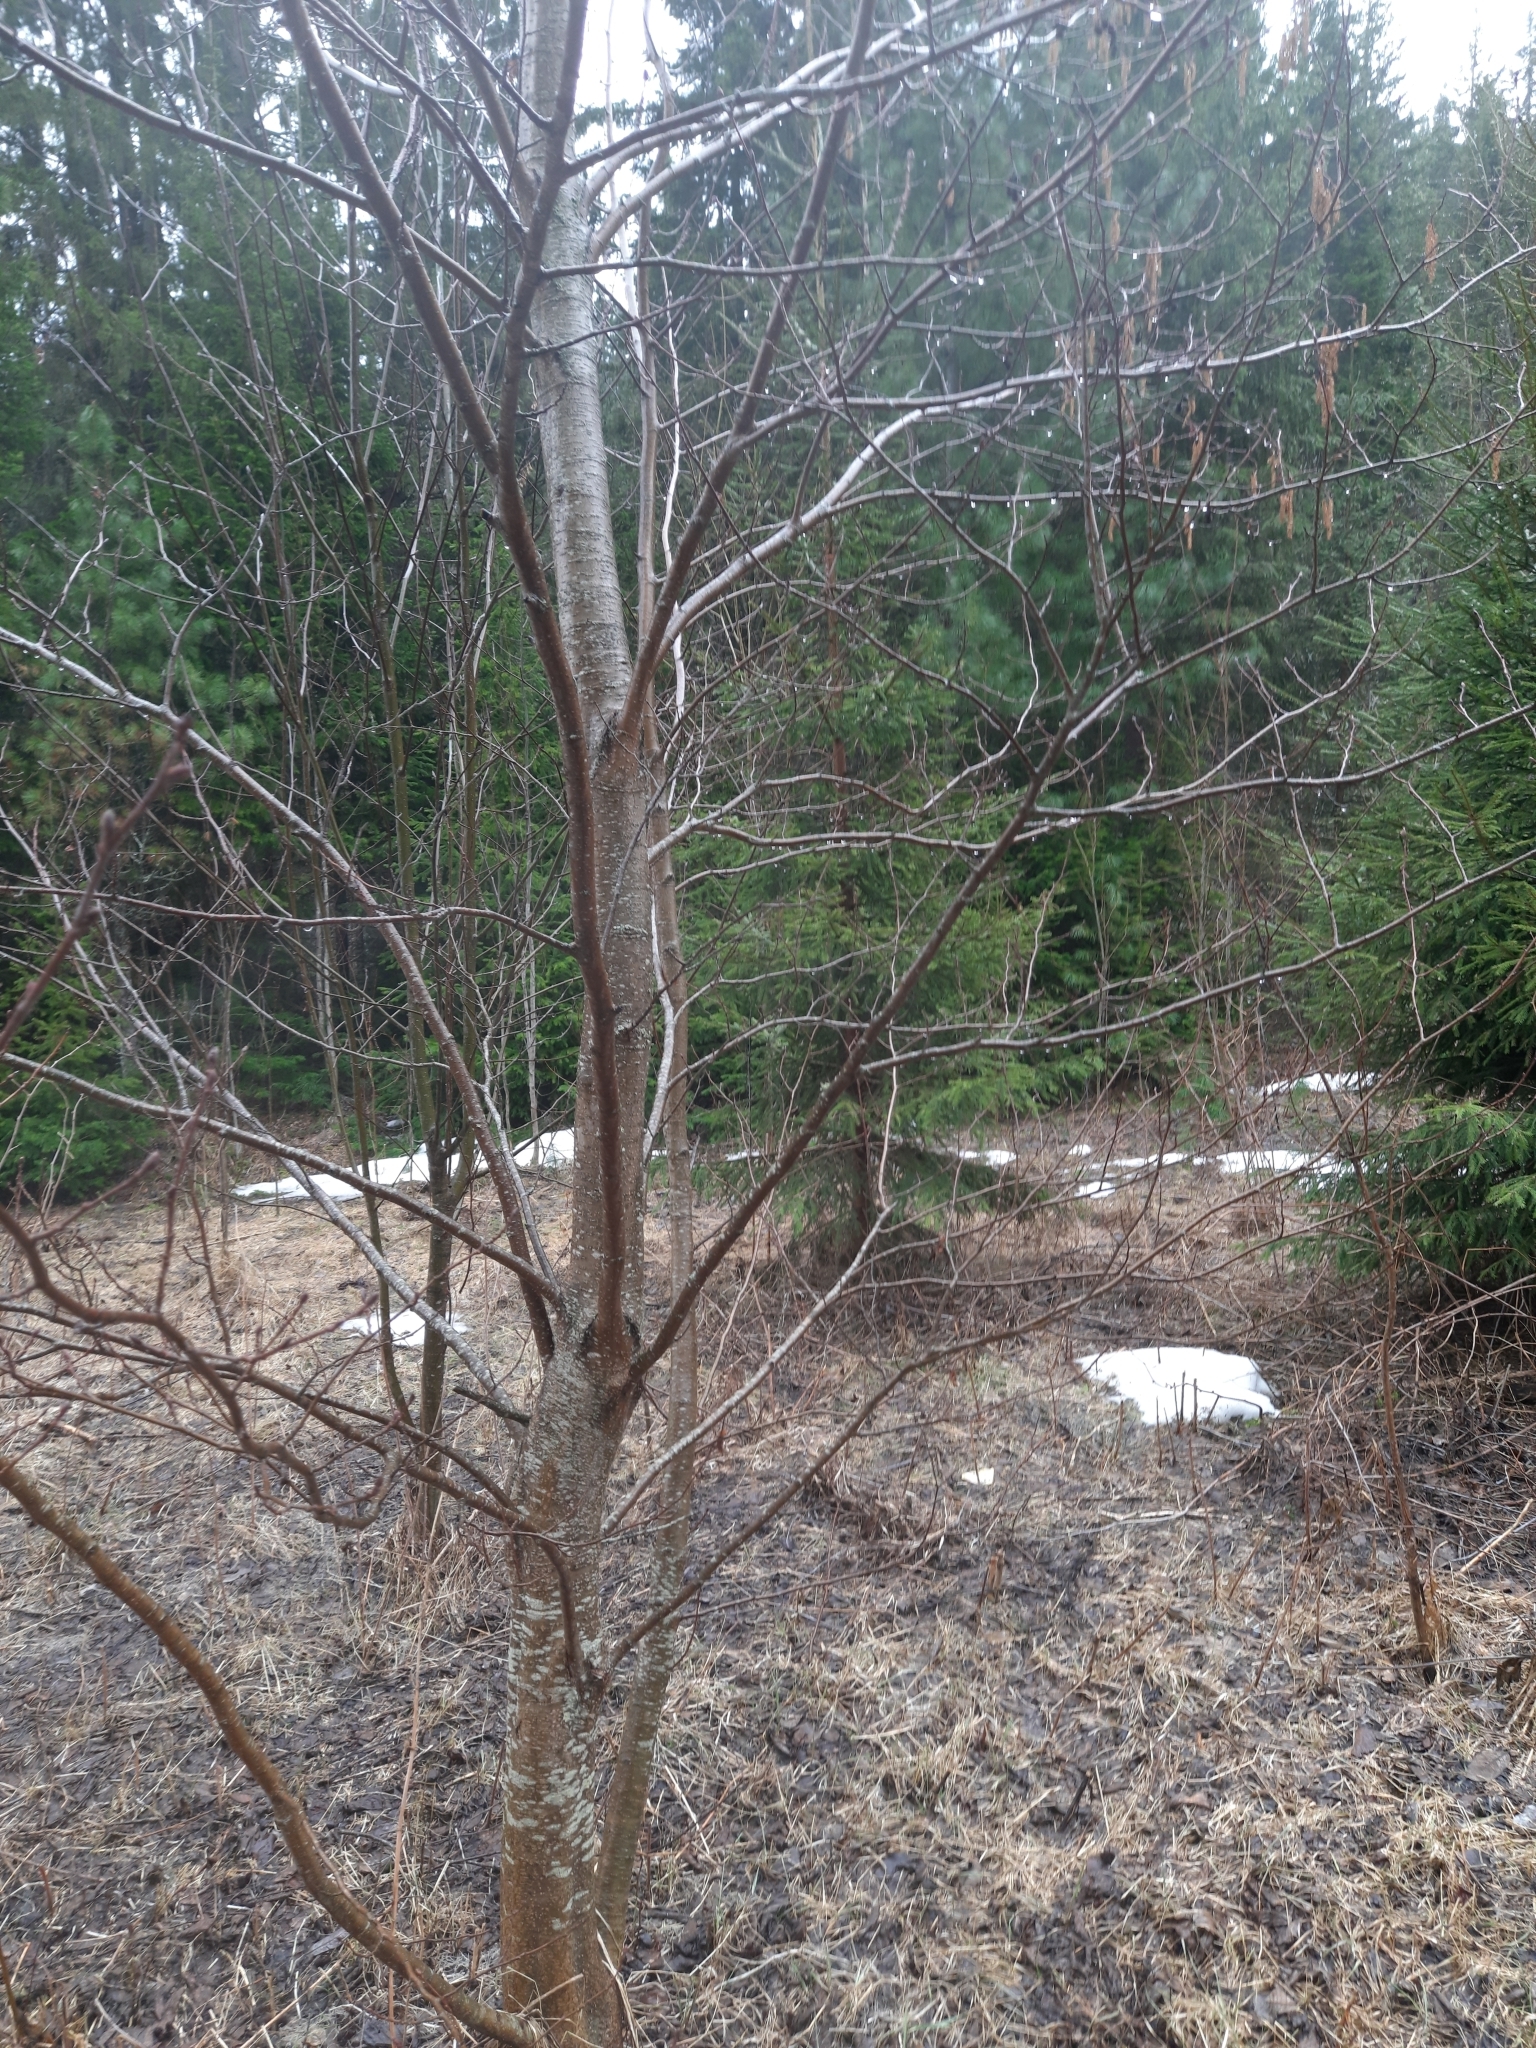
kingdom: Plantae
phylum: Tracheophyta
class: Magnoliopsida
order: Fagales
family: Betulaceae
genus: Alnus
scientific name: Alnus incana
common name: Grey alder
